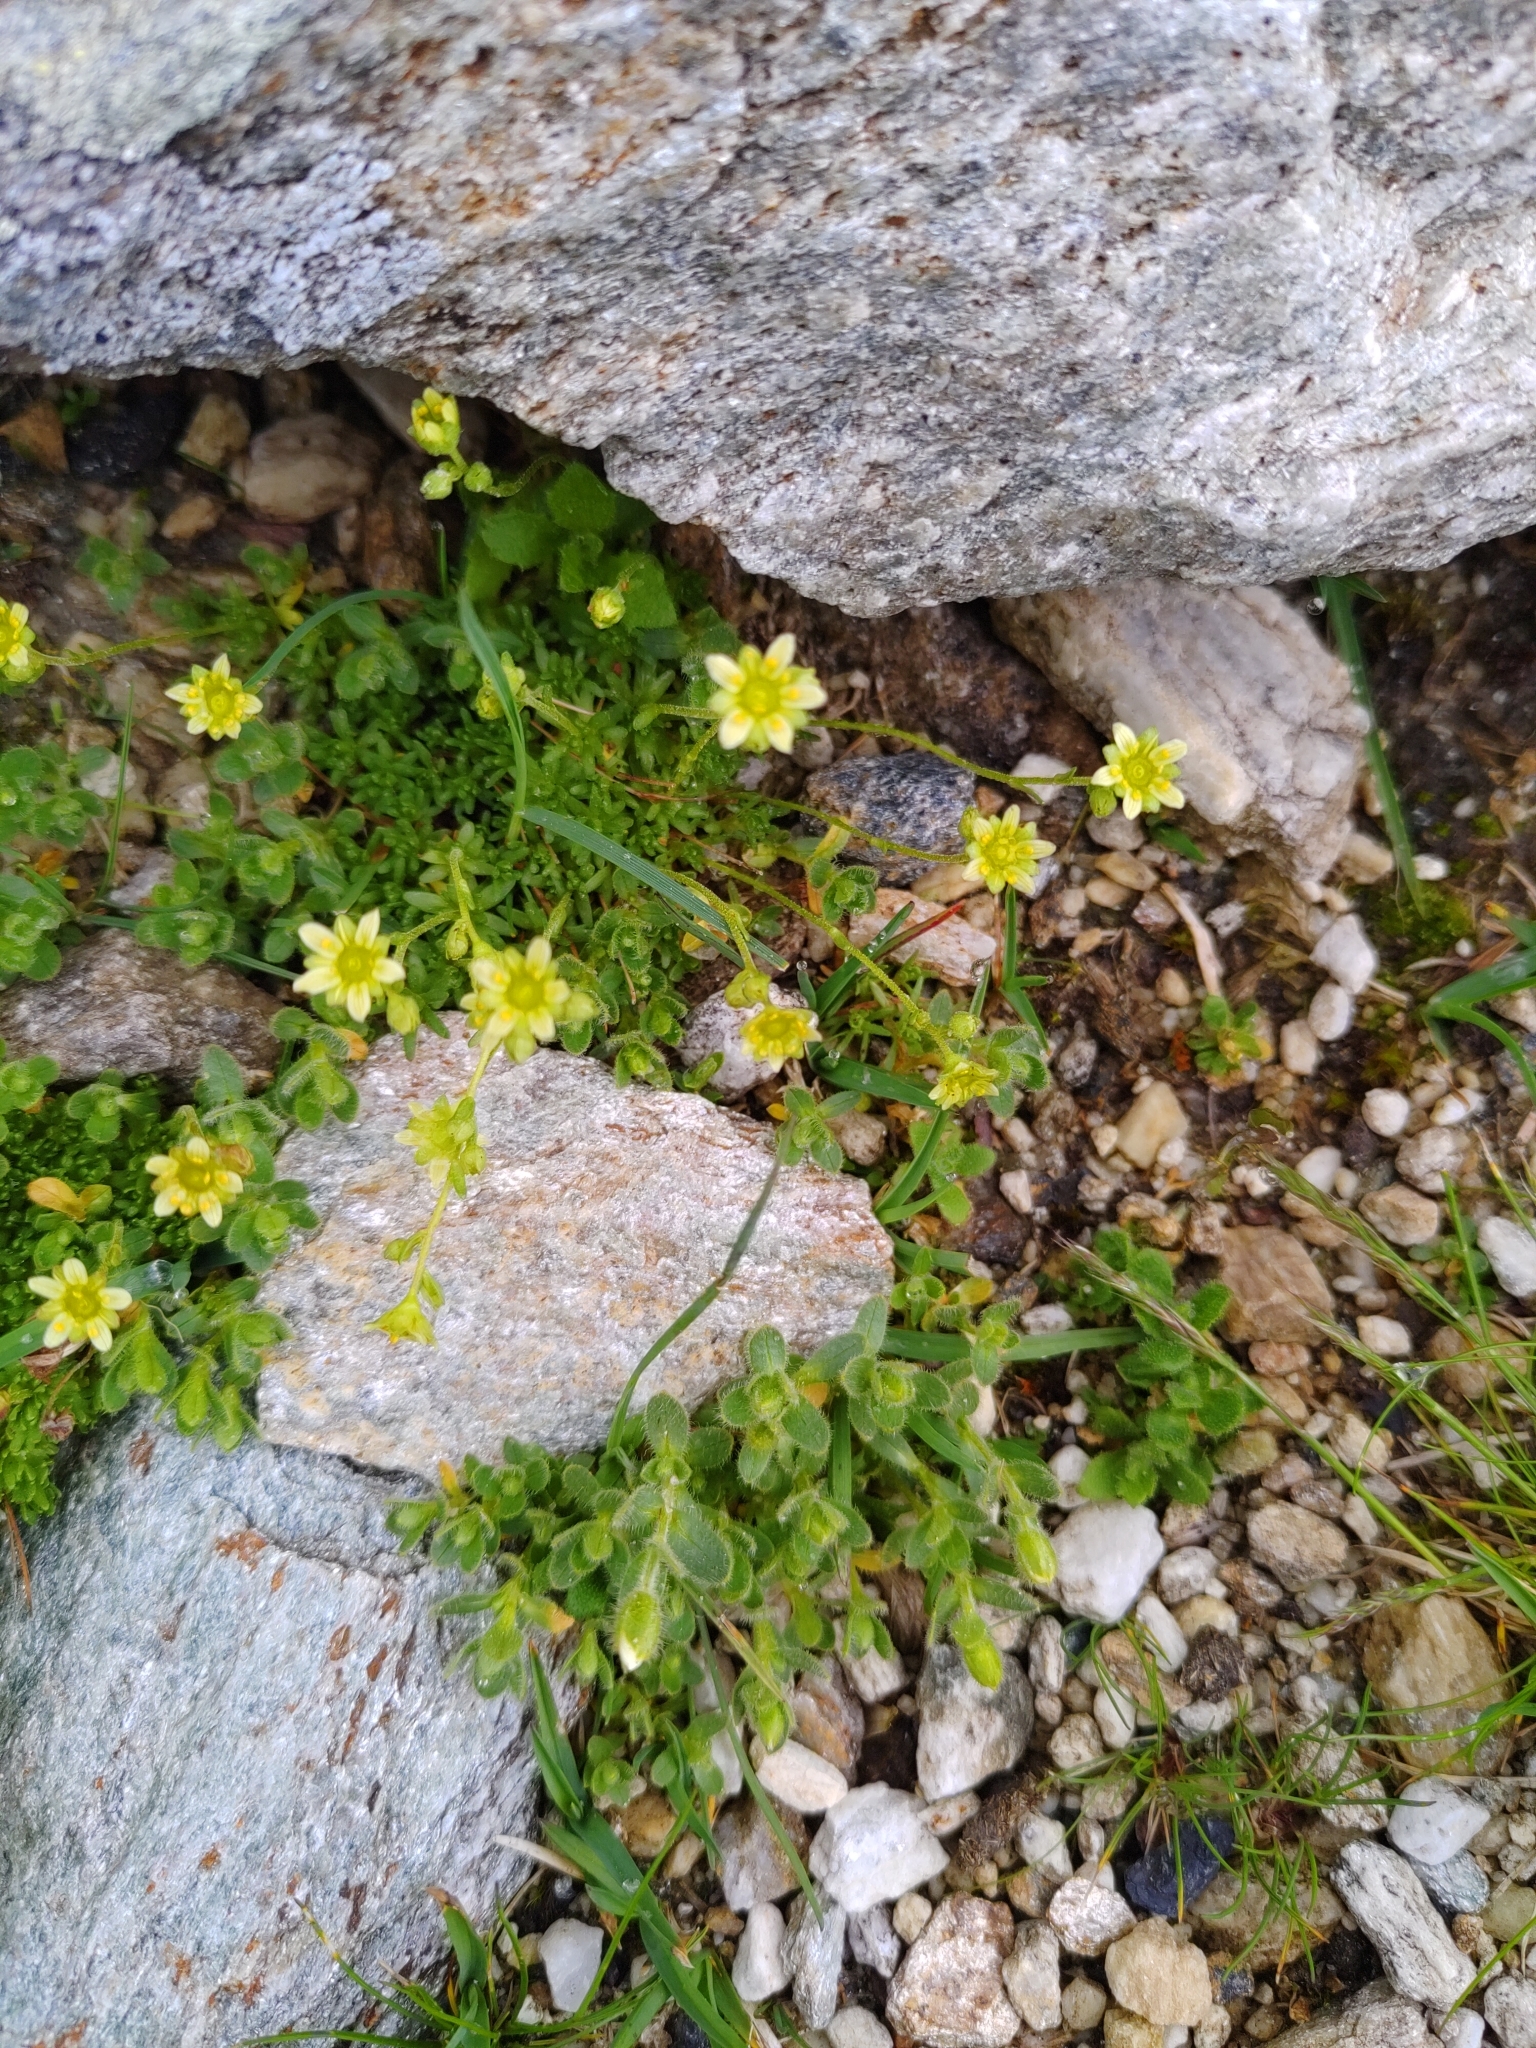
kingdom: Plantae
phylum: Tracheophyta
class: Magnoliopsida
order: Saxifragales
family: Saxifragaceae
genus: Saxifraga
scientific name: Saxifraga moschata
